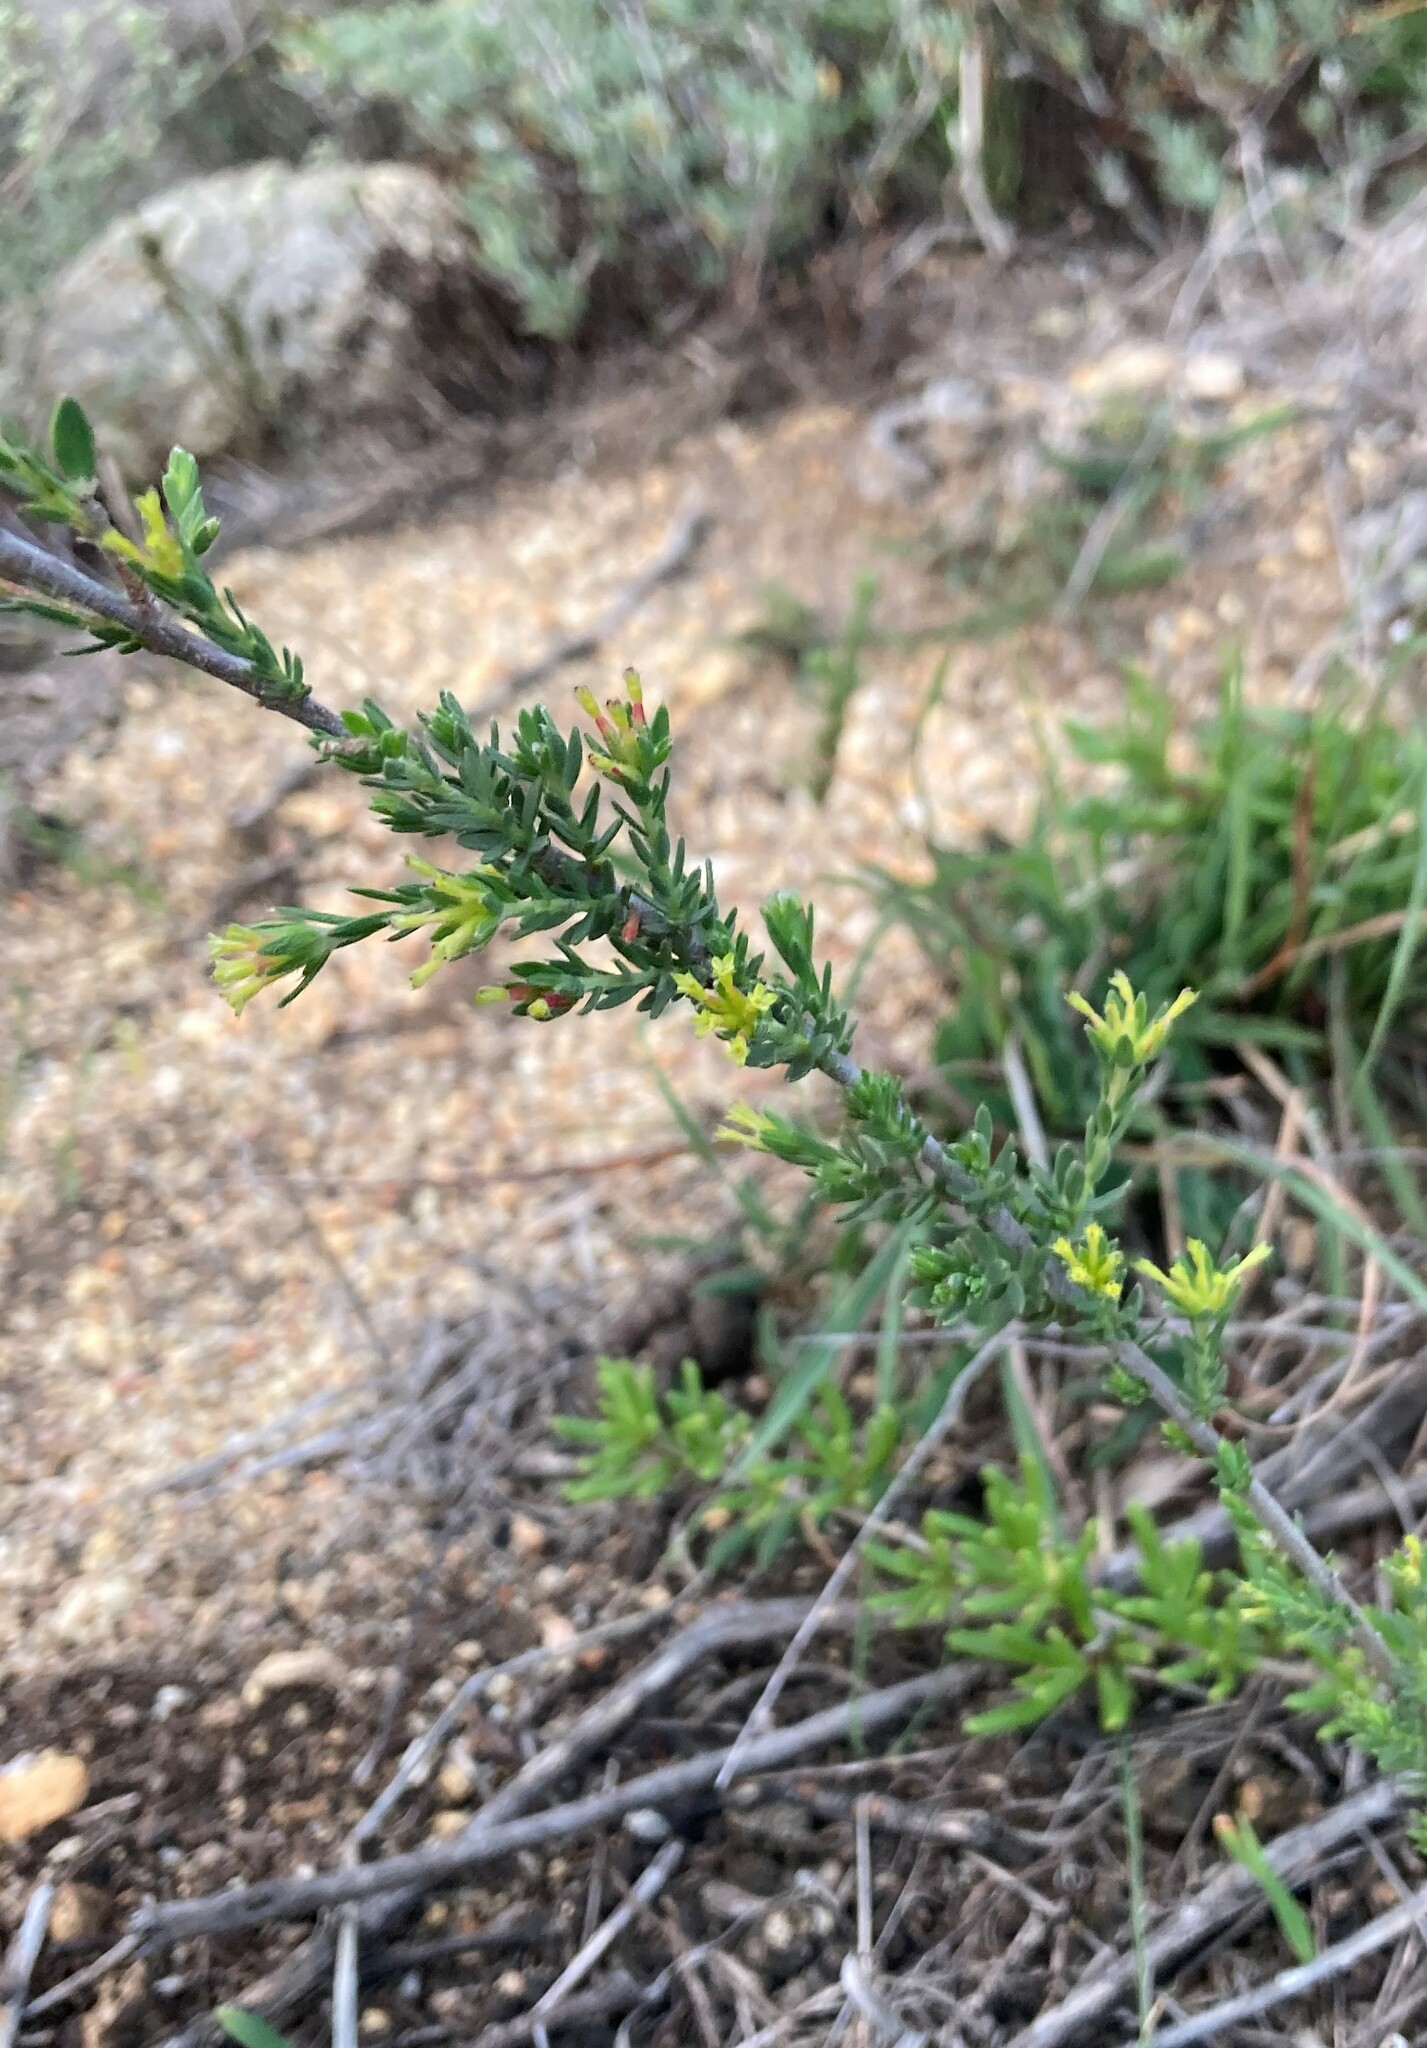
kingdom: Plantae
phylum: Tracheophyta
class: Magnoliopsida
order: Malvales
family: Thymelaeaceae
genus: Gnidia
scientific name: Gnidia laxa
